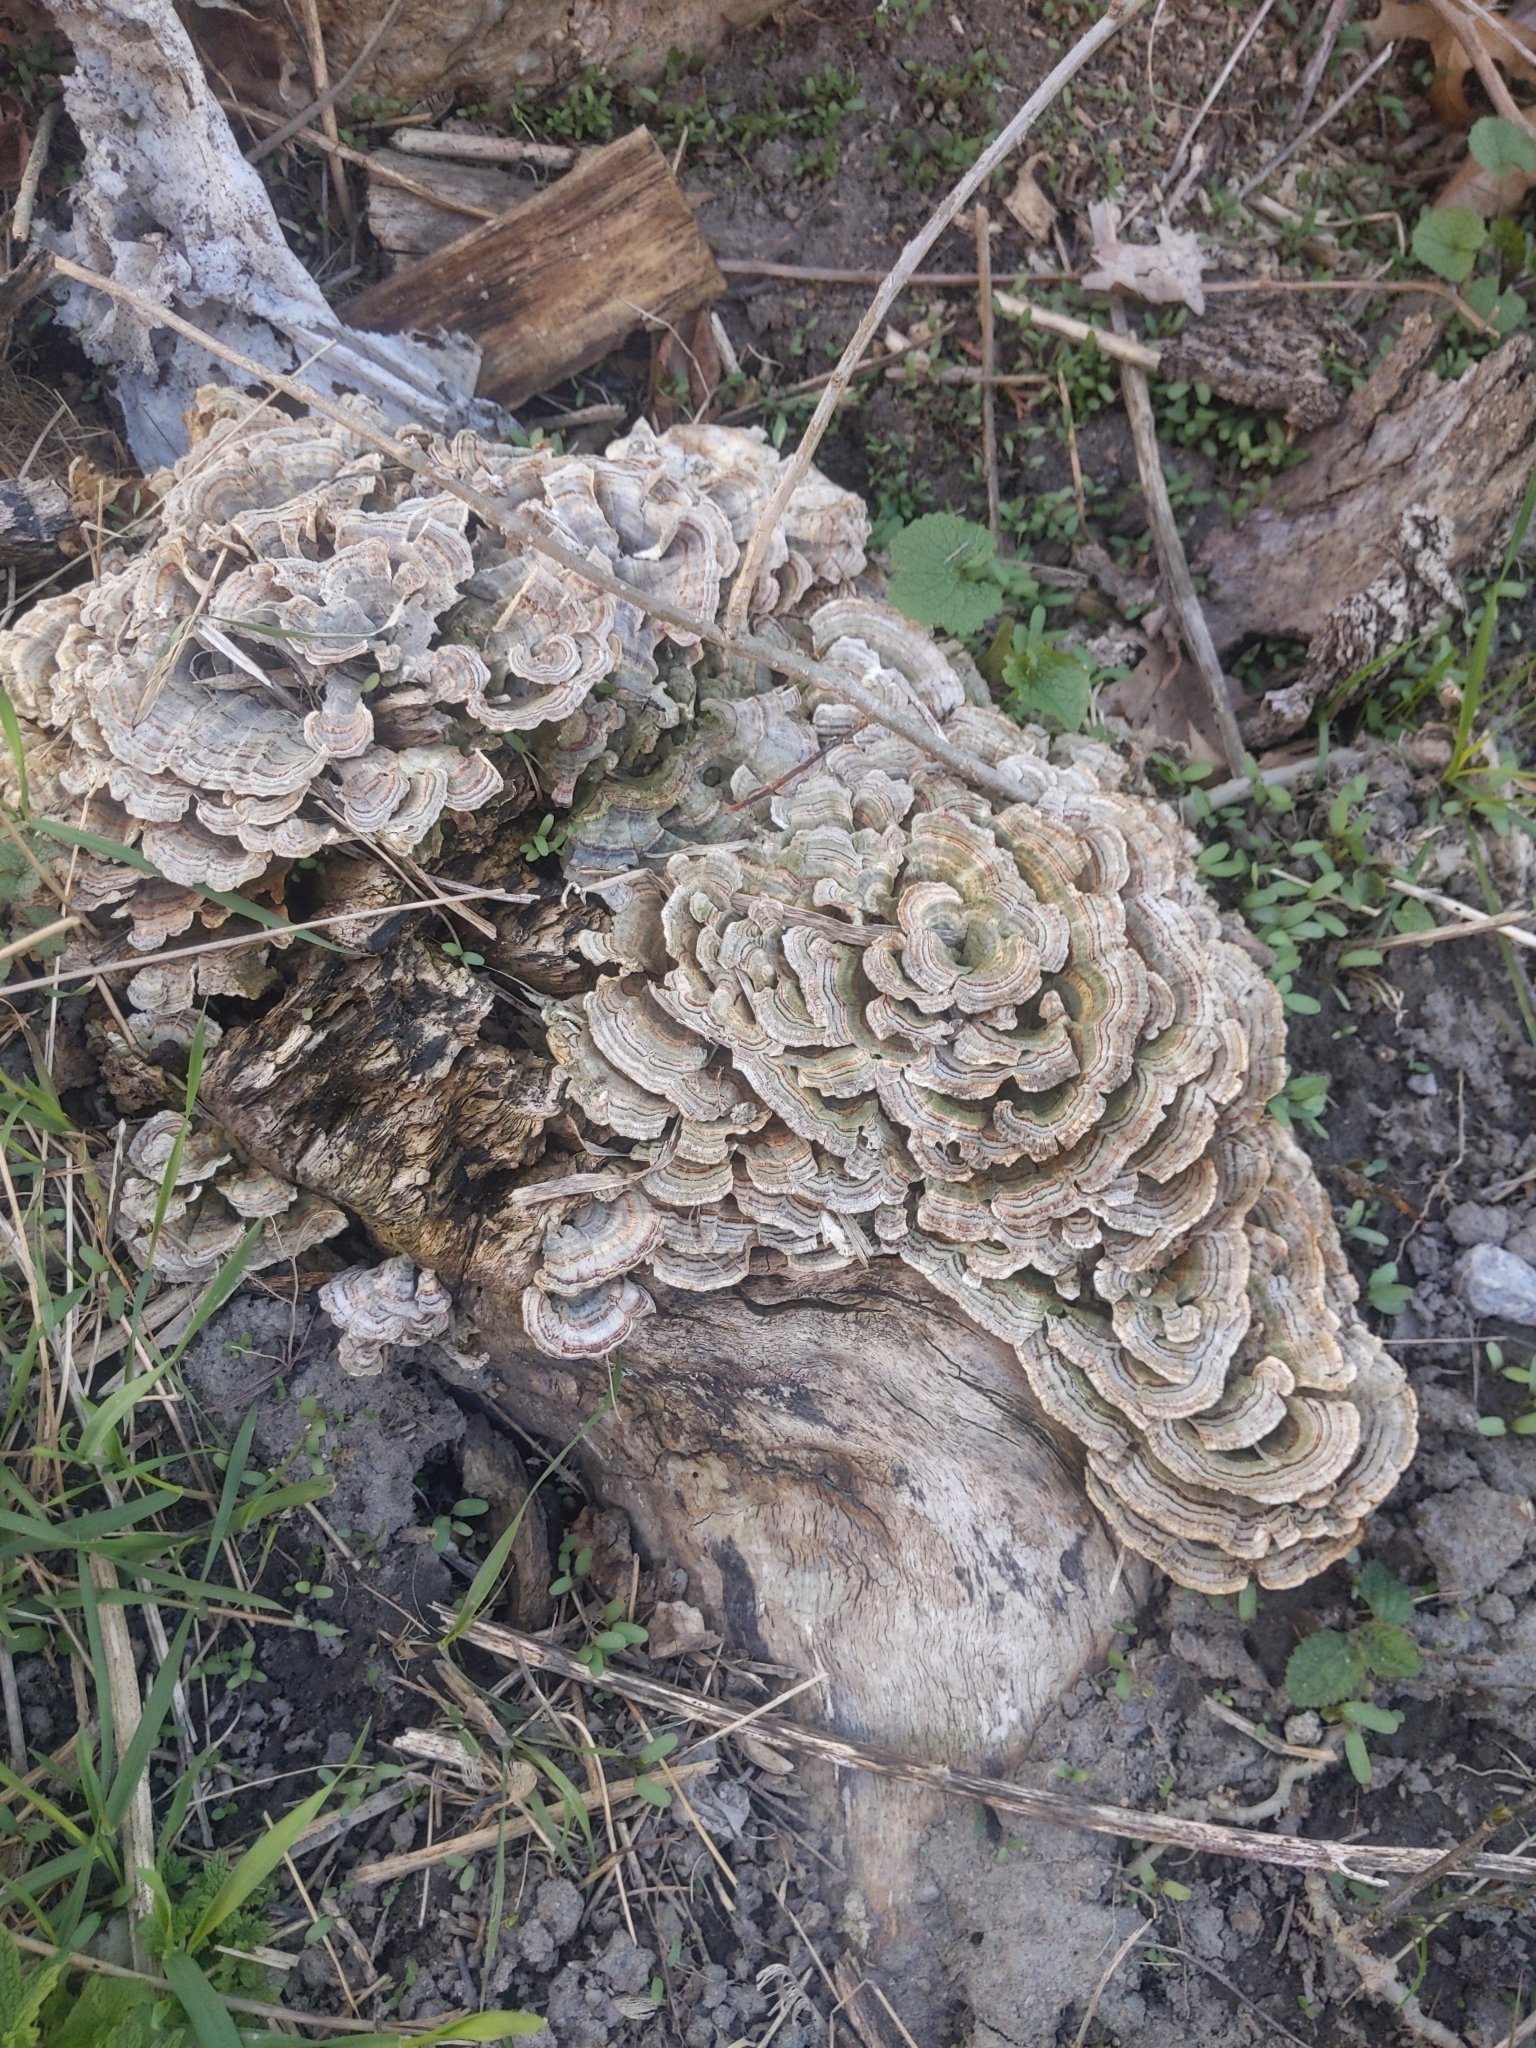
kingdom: Fungi
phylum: Basidiomycota
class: Agaricomycetes
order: Polyporales
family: Polyporaceae
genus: Trametes
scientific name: Trametes versicolor
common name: Turkeytail
